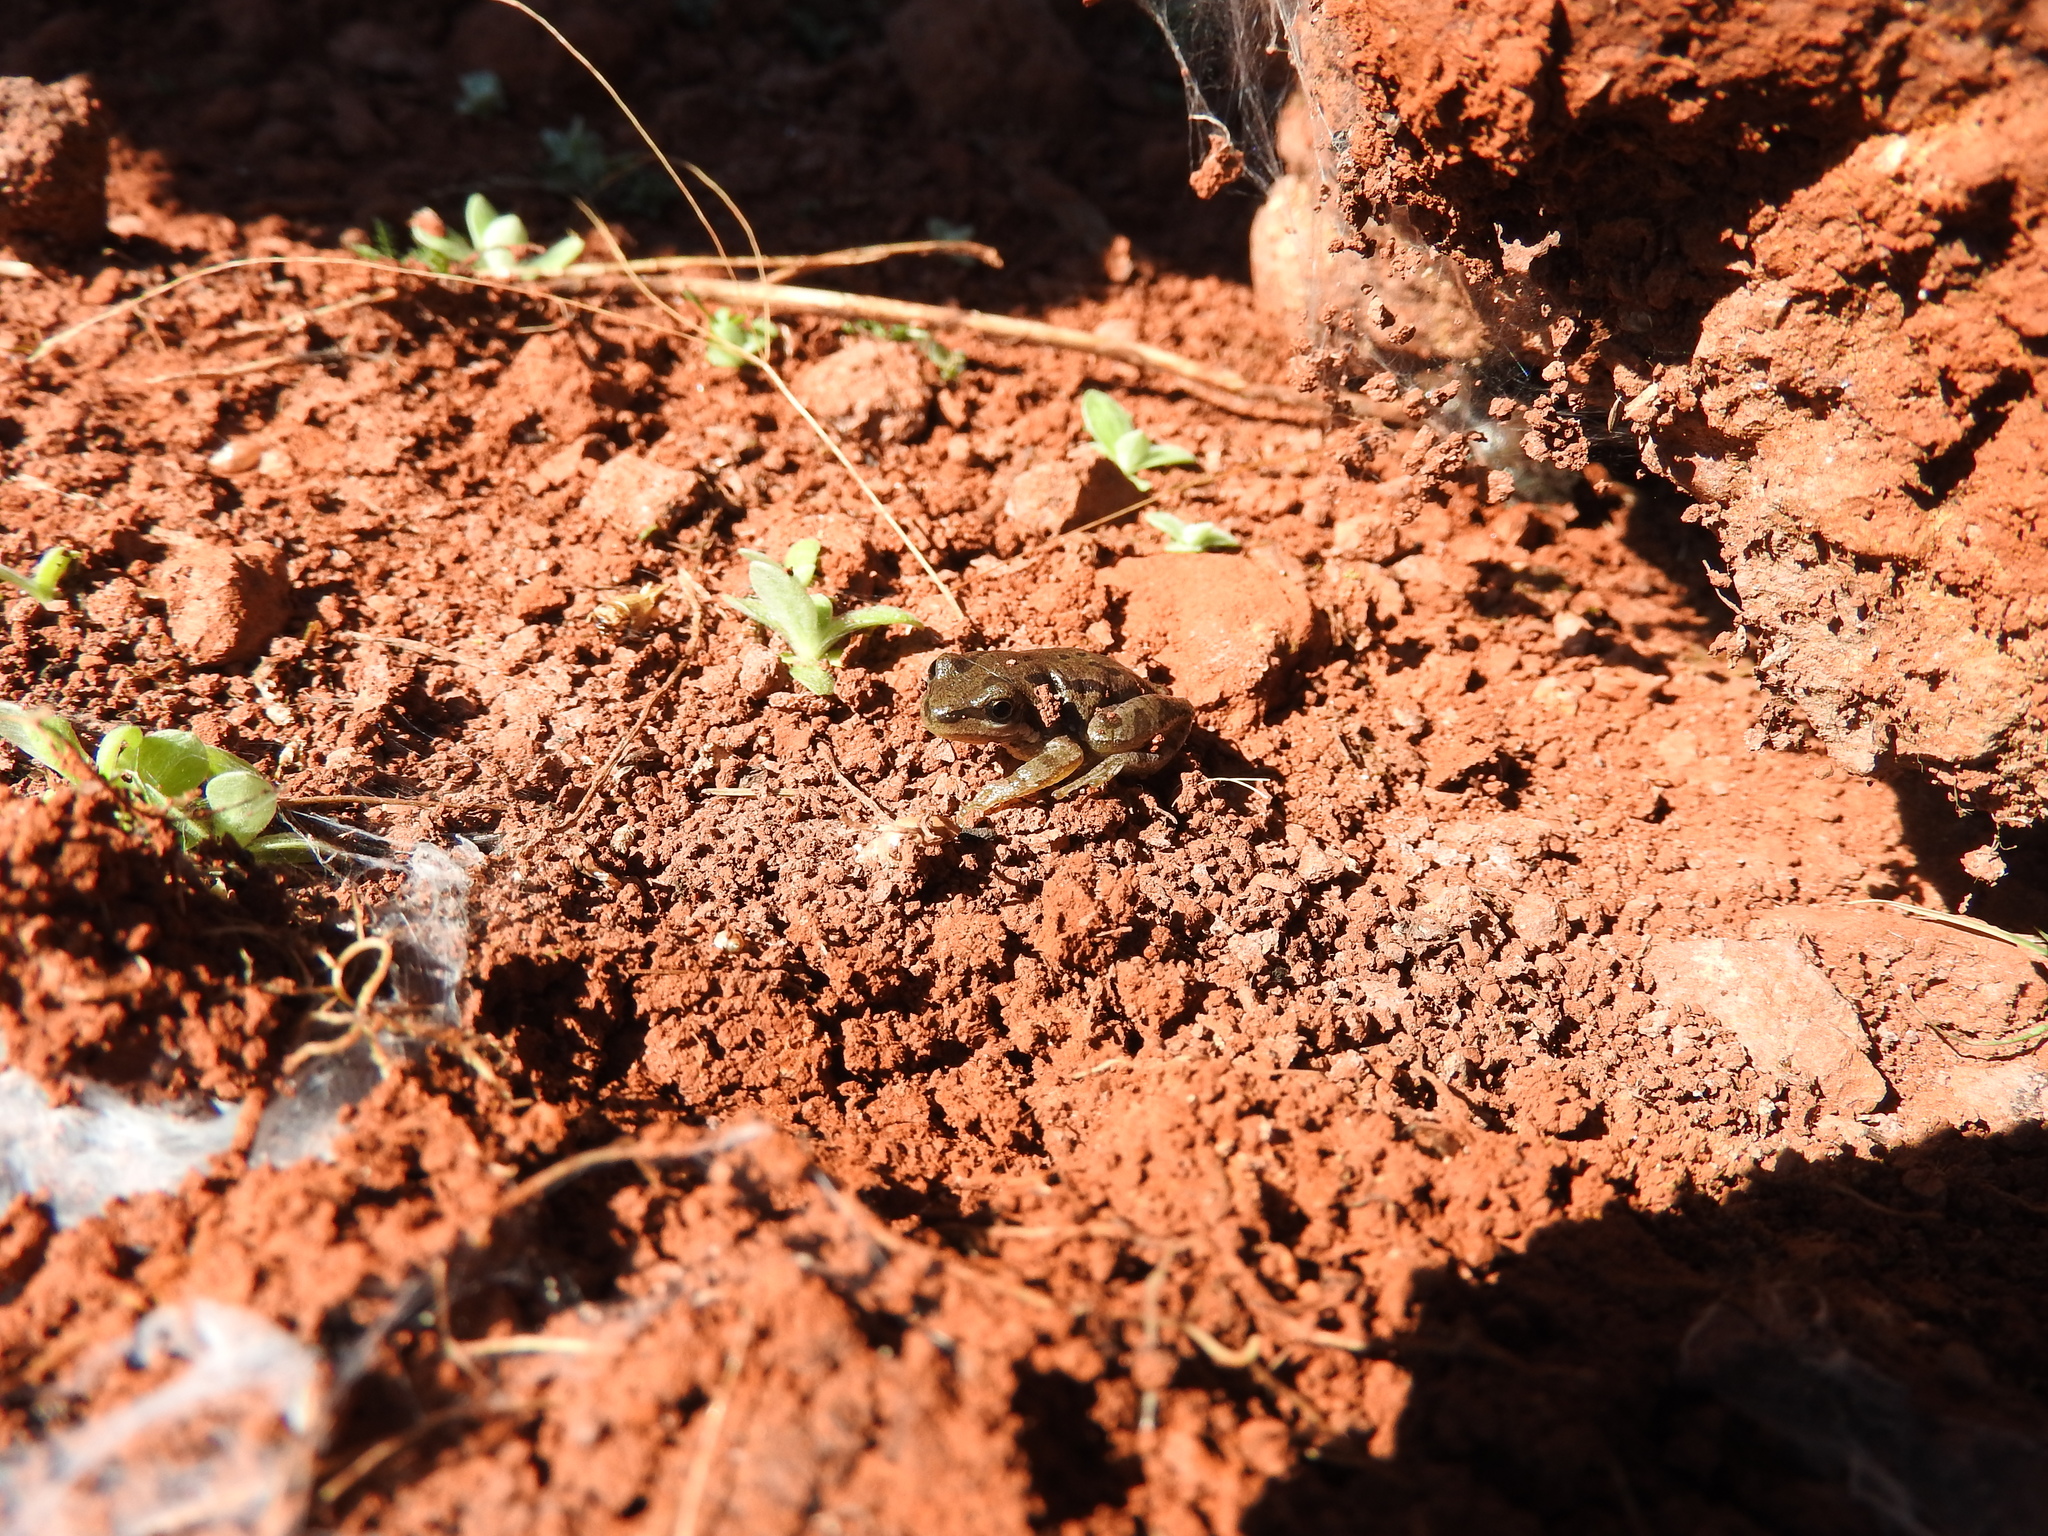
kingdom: Animalia
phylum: Chordata
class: Amphibia
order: Anura
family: Hylidae
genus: Dryophytes
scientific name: Dryophytes eximius
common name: Mountain treefrog
